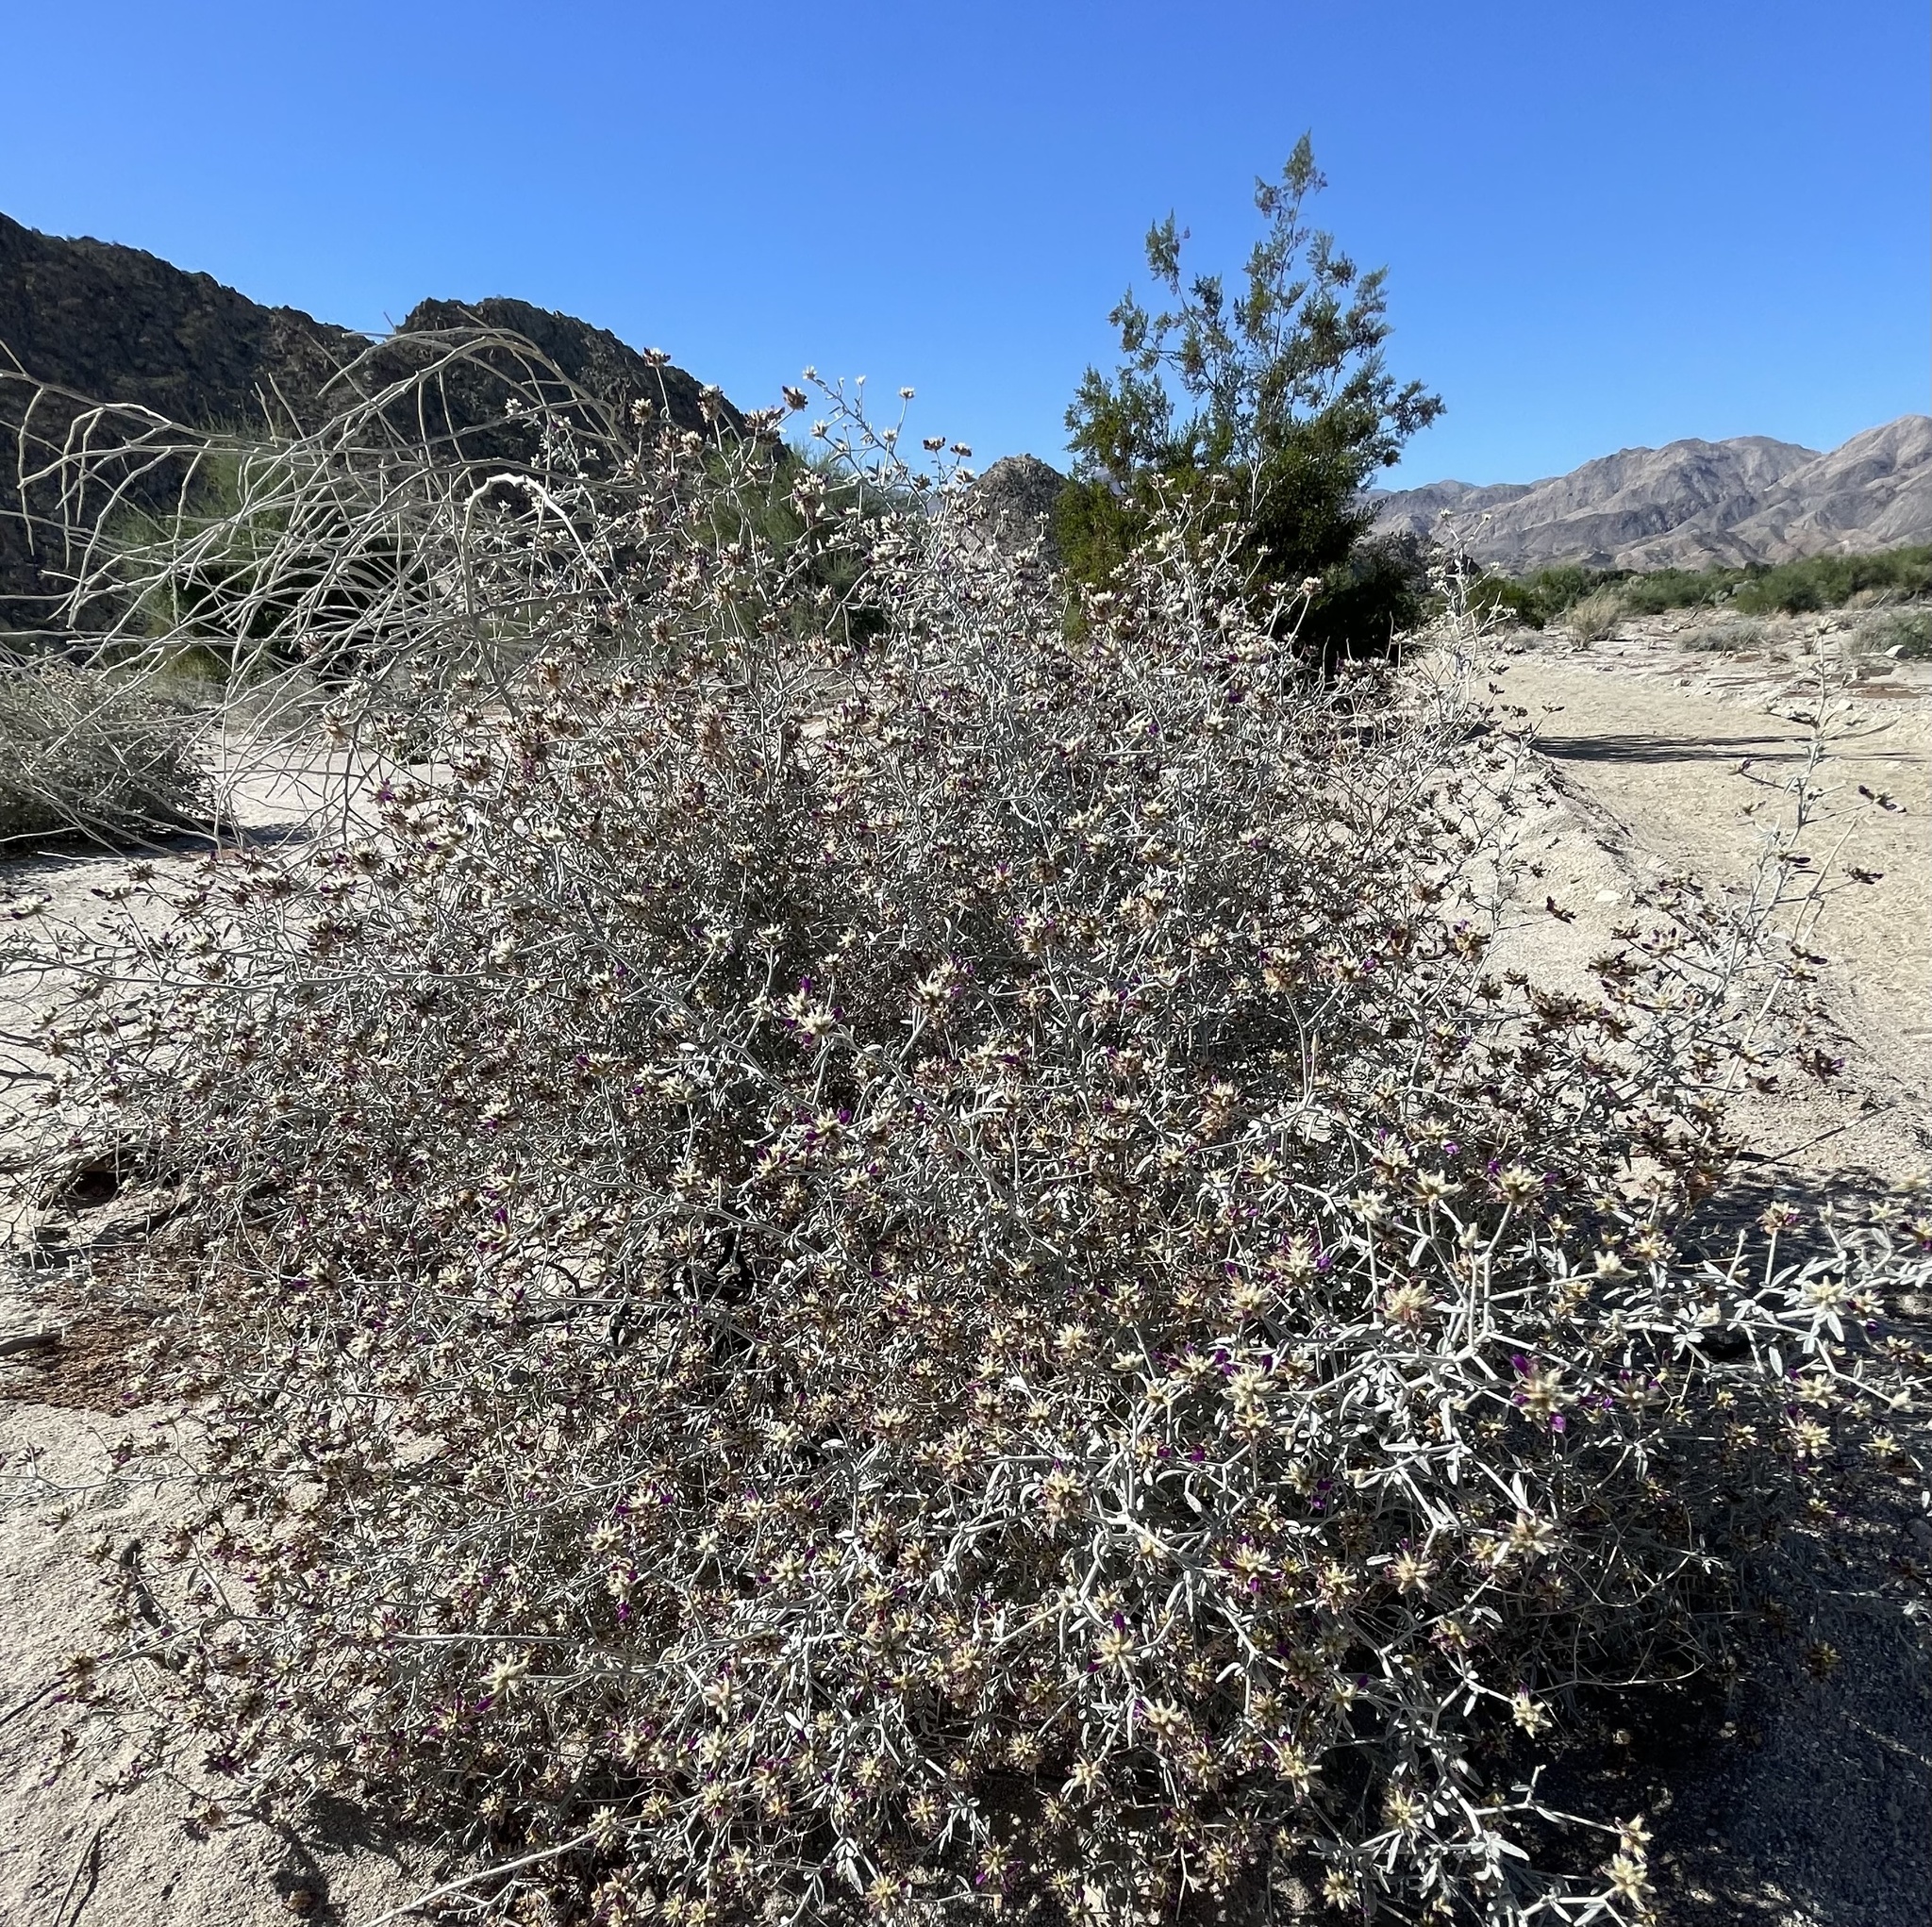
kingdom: Plantae
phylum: Tracheophyta
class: Magnoliopsida
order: Fabales
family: Fabaceae
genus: Psorothamnus
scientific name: Psorothamnus emoryi
